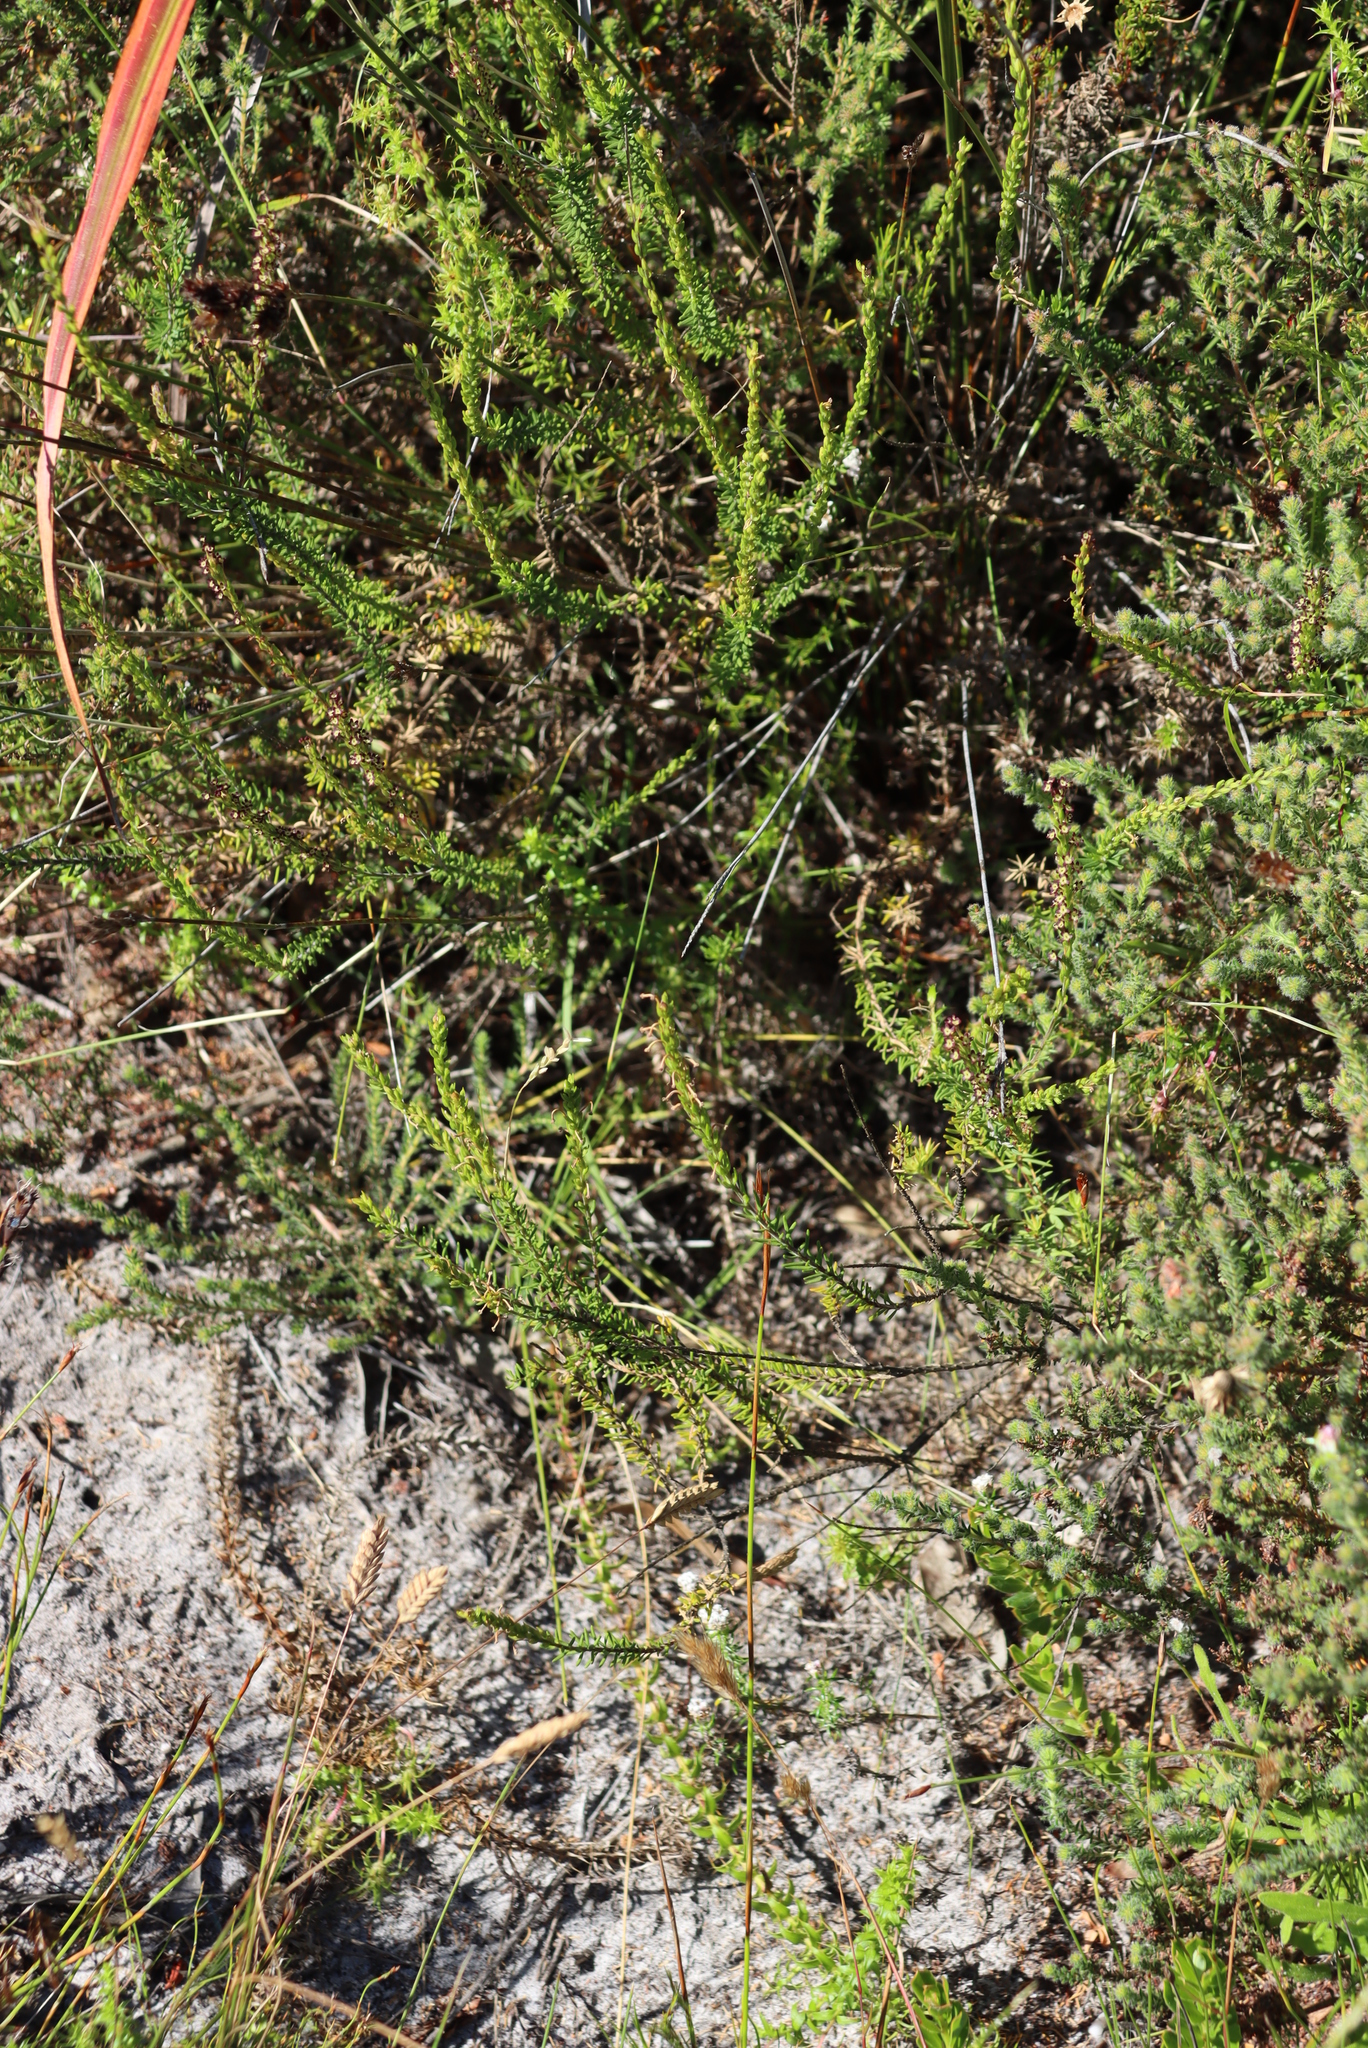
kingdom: Plantae
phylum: Tracheophyta
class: Magnoliopsida
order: Lamiales
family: Scrophulariaceae
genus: Microdon
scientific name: Microdon dubius
